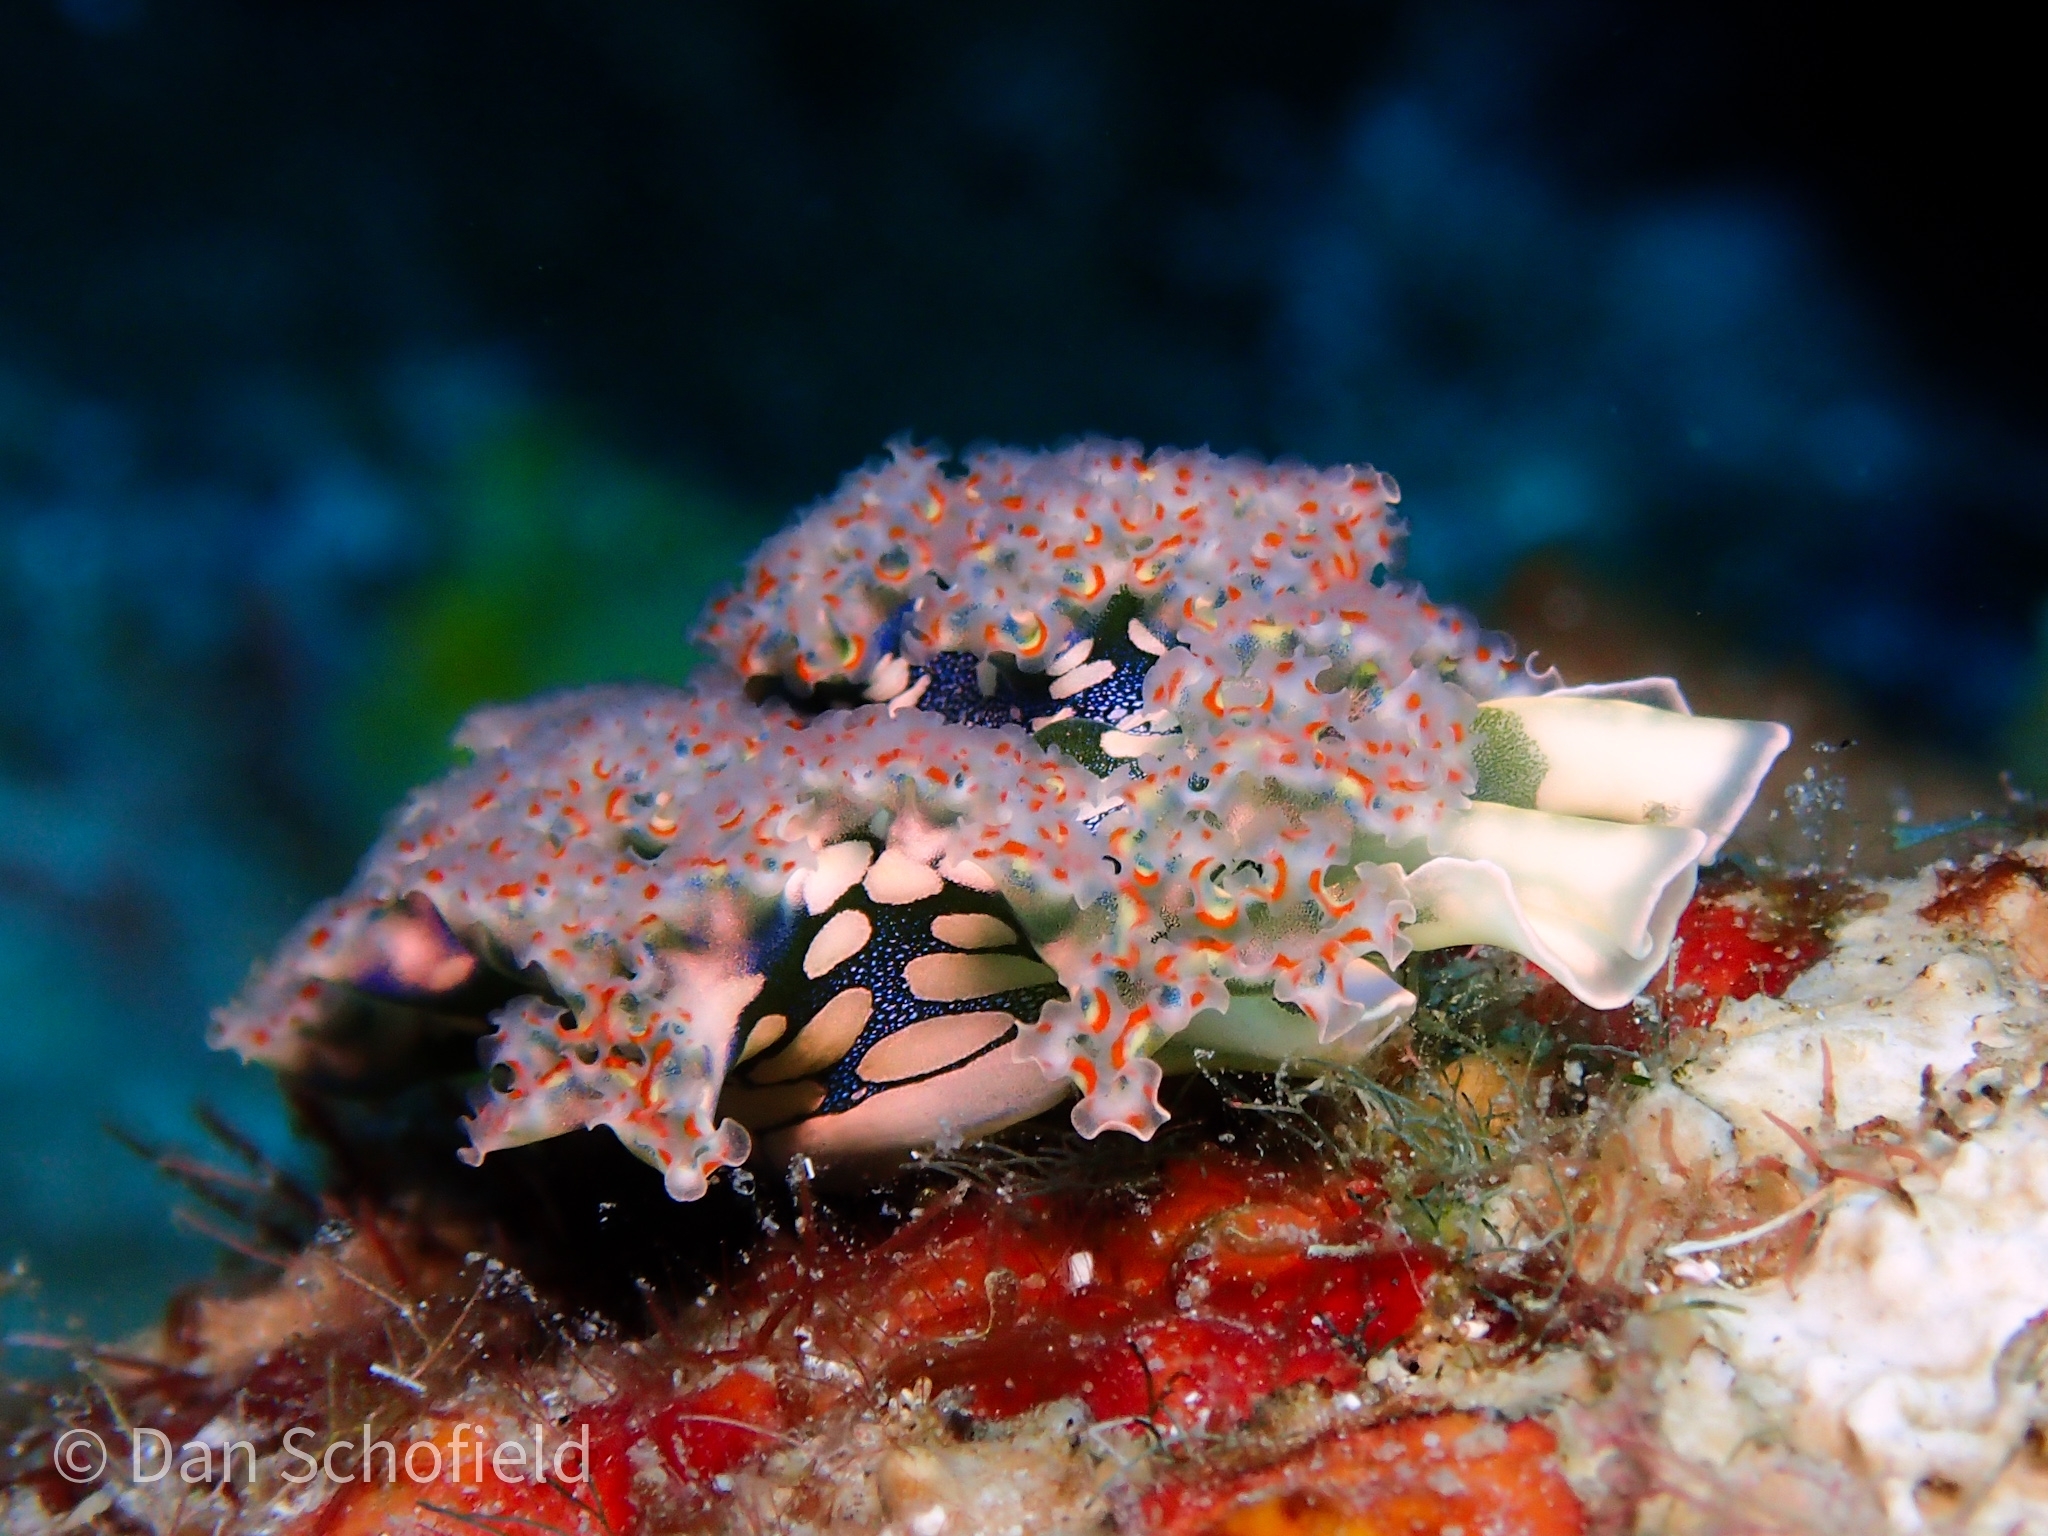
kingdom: Animalia
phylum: Mollusca
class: Gastropoda
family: Plakobranchidae
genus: Elysia
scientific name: Elysia crispata
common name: Lettuce slug
